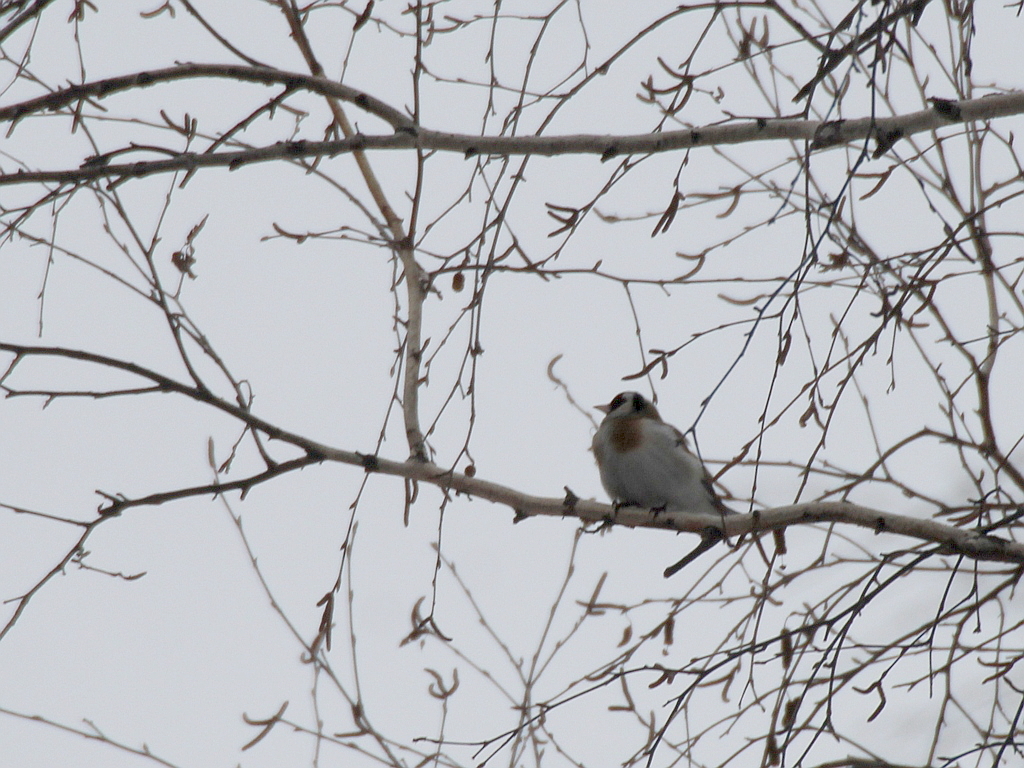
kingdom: Animalia
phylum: Chordata
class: Aves
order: Passeriformes
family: Fringillidae
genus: Carduelis
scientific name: Carduelis carduelis
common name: European goldfinch
